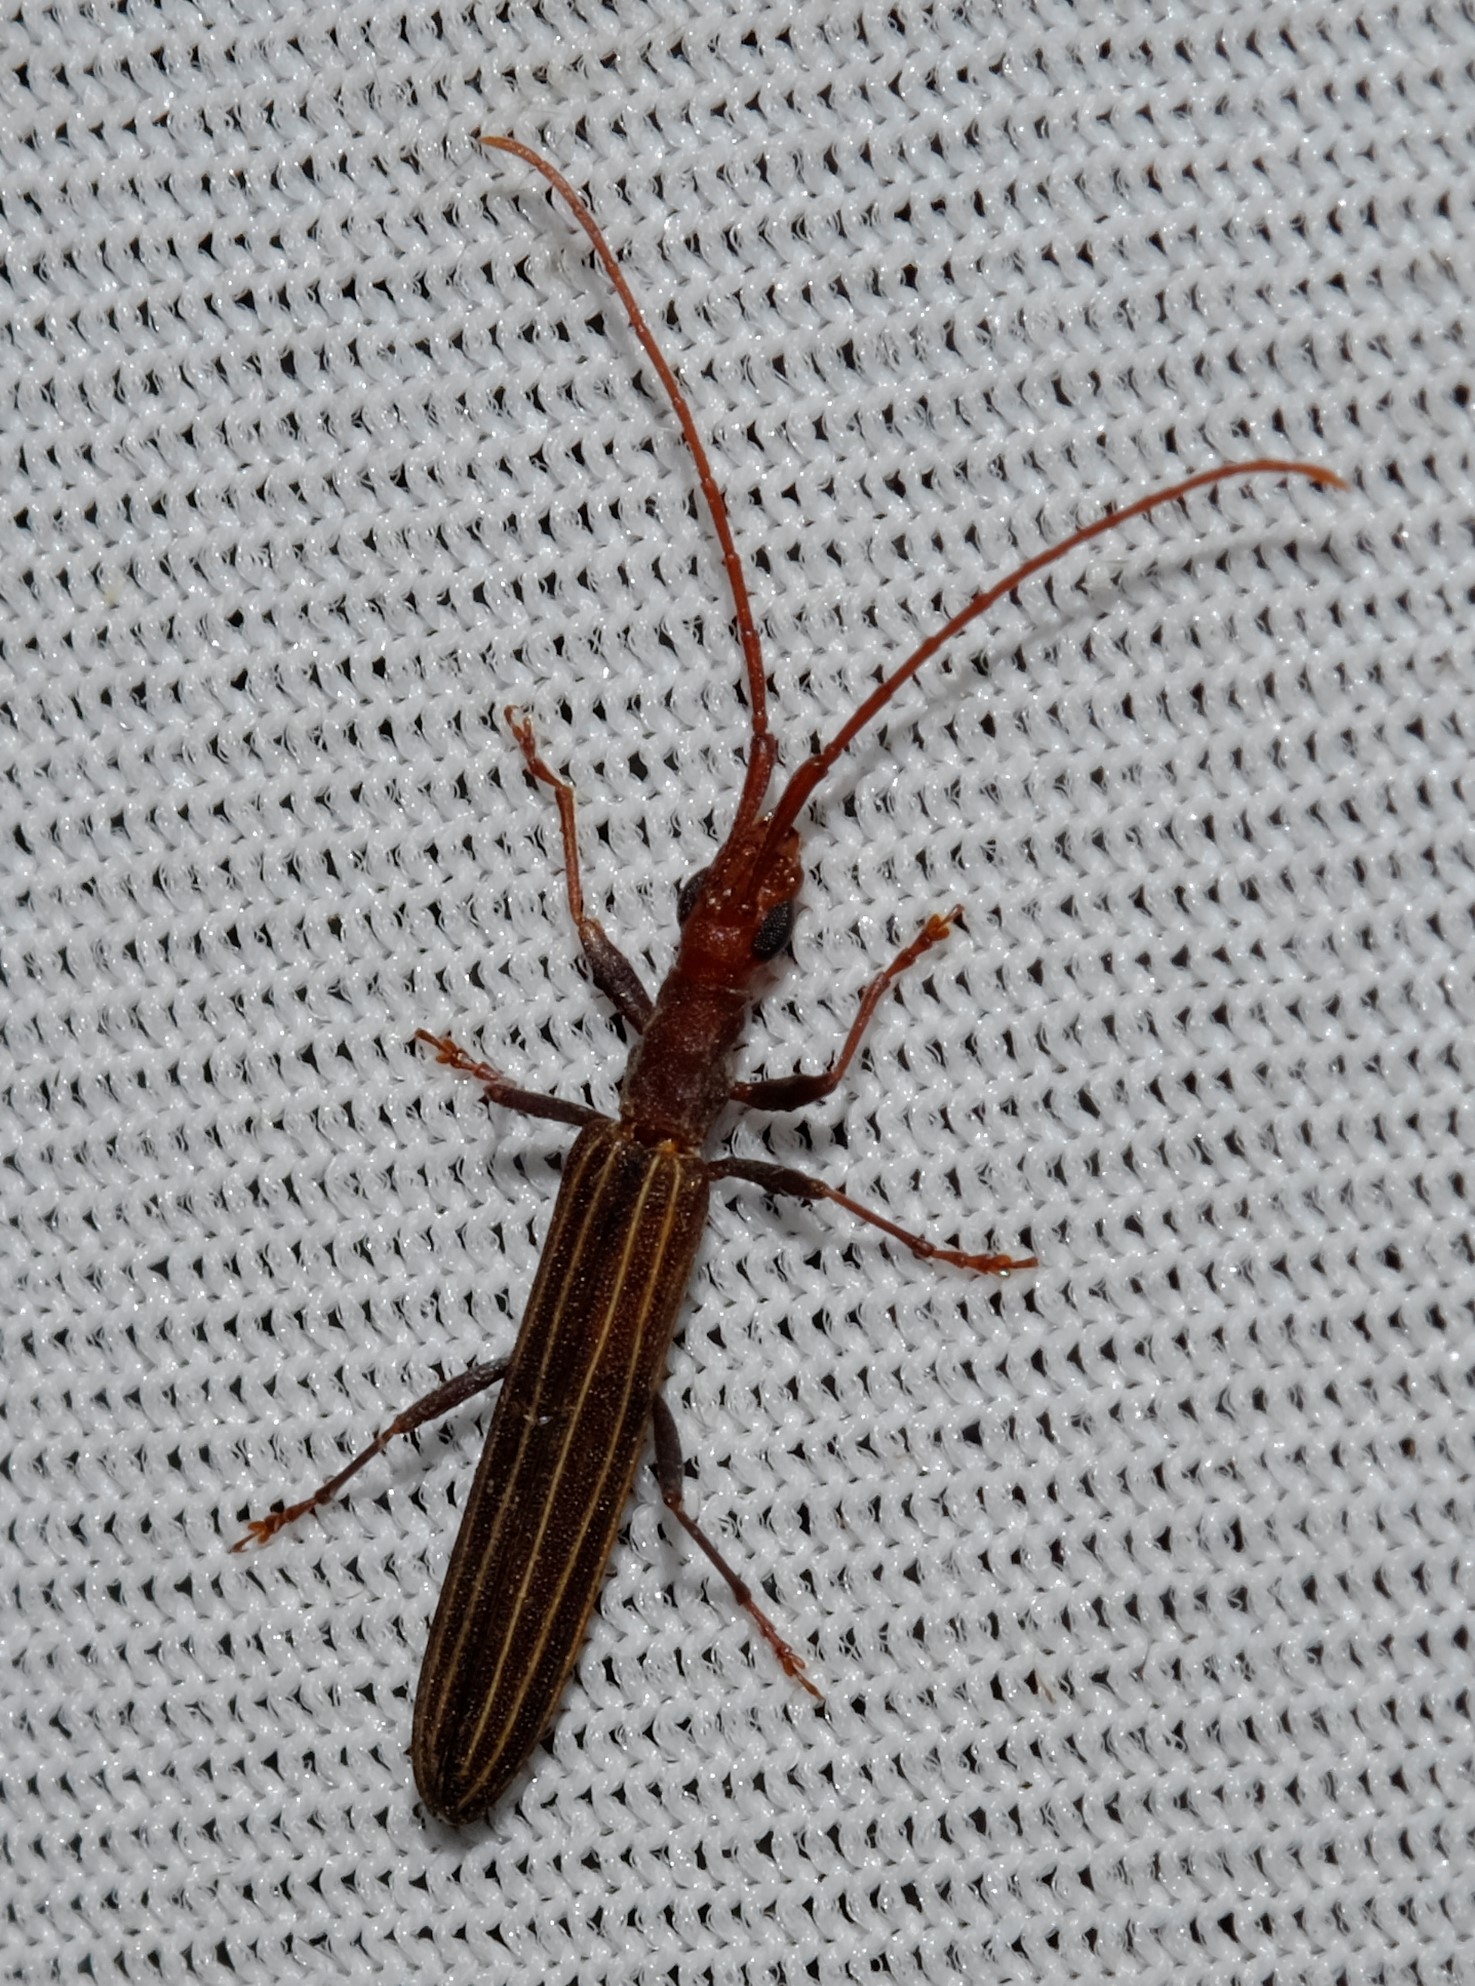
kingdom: Animalia
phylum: Arthropoda
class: Insecta
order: Coleoptera
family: Cerambycidae
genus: Syllitus
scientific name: Syllitus grammicus
